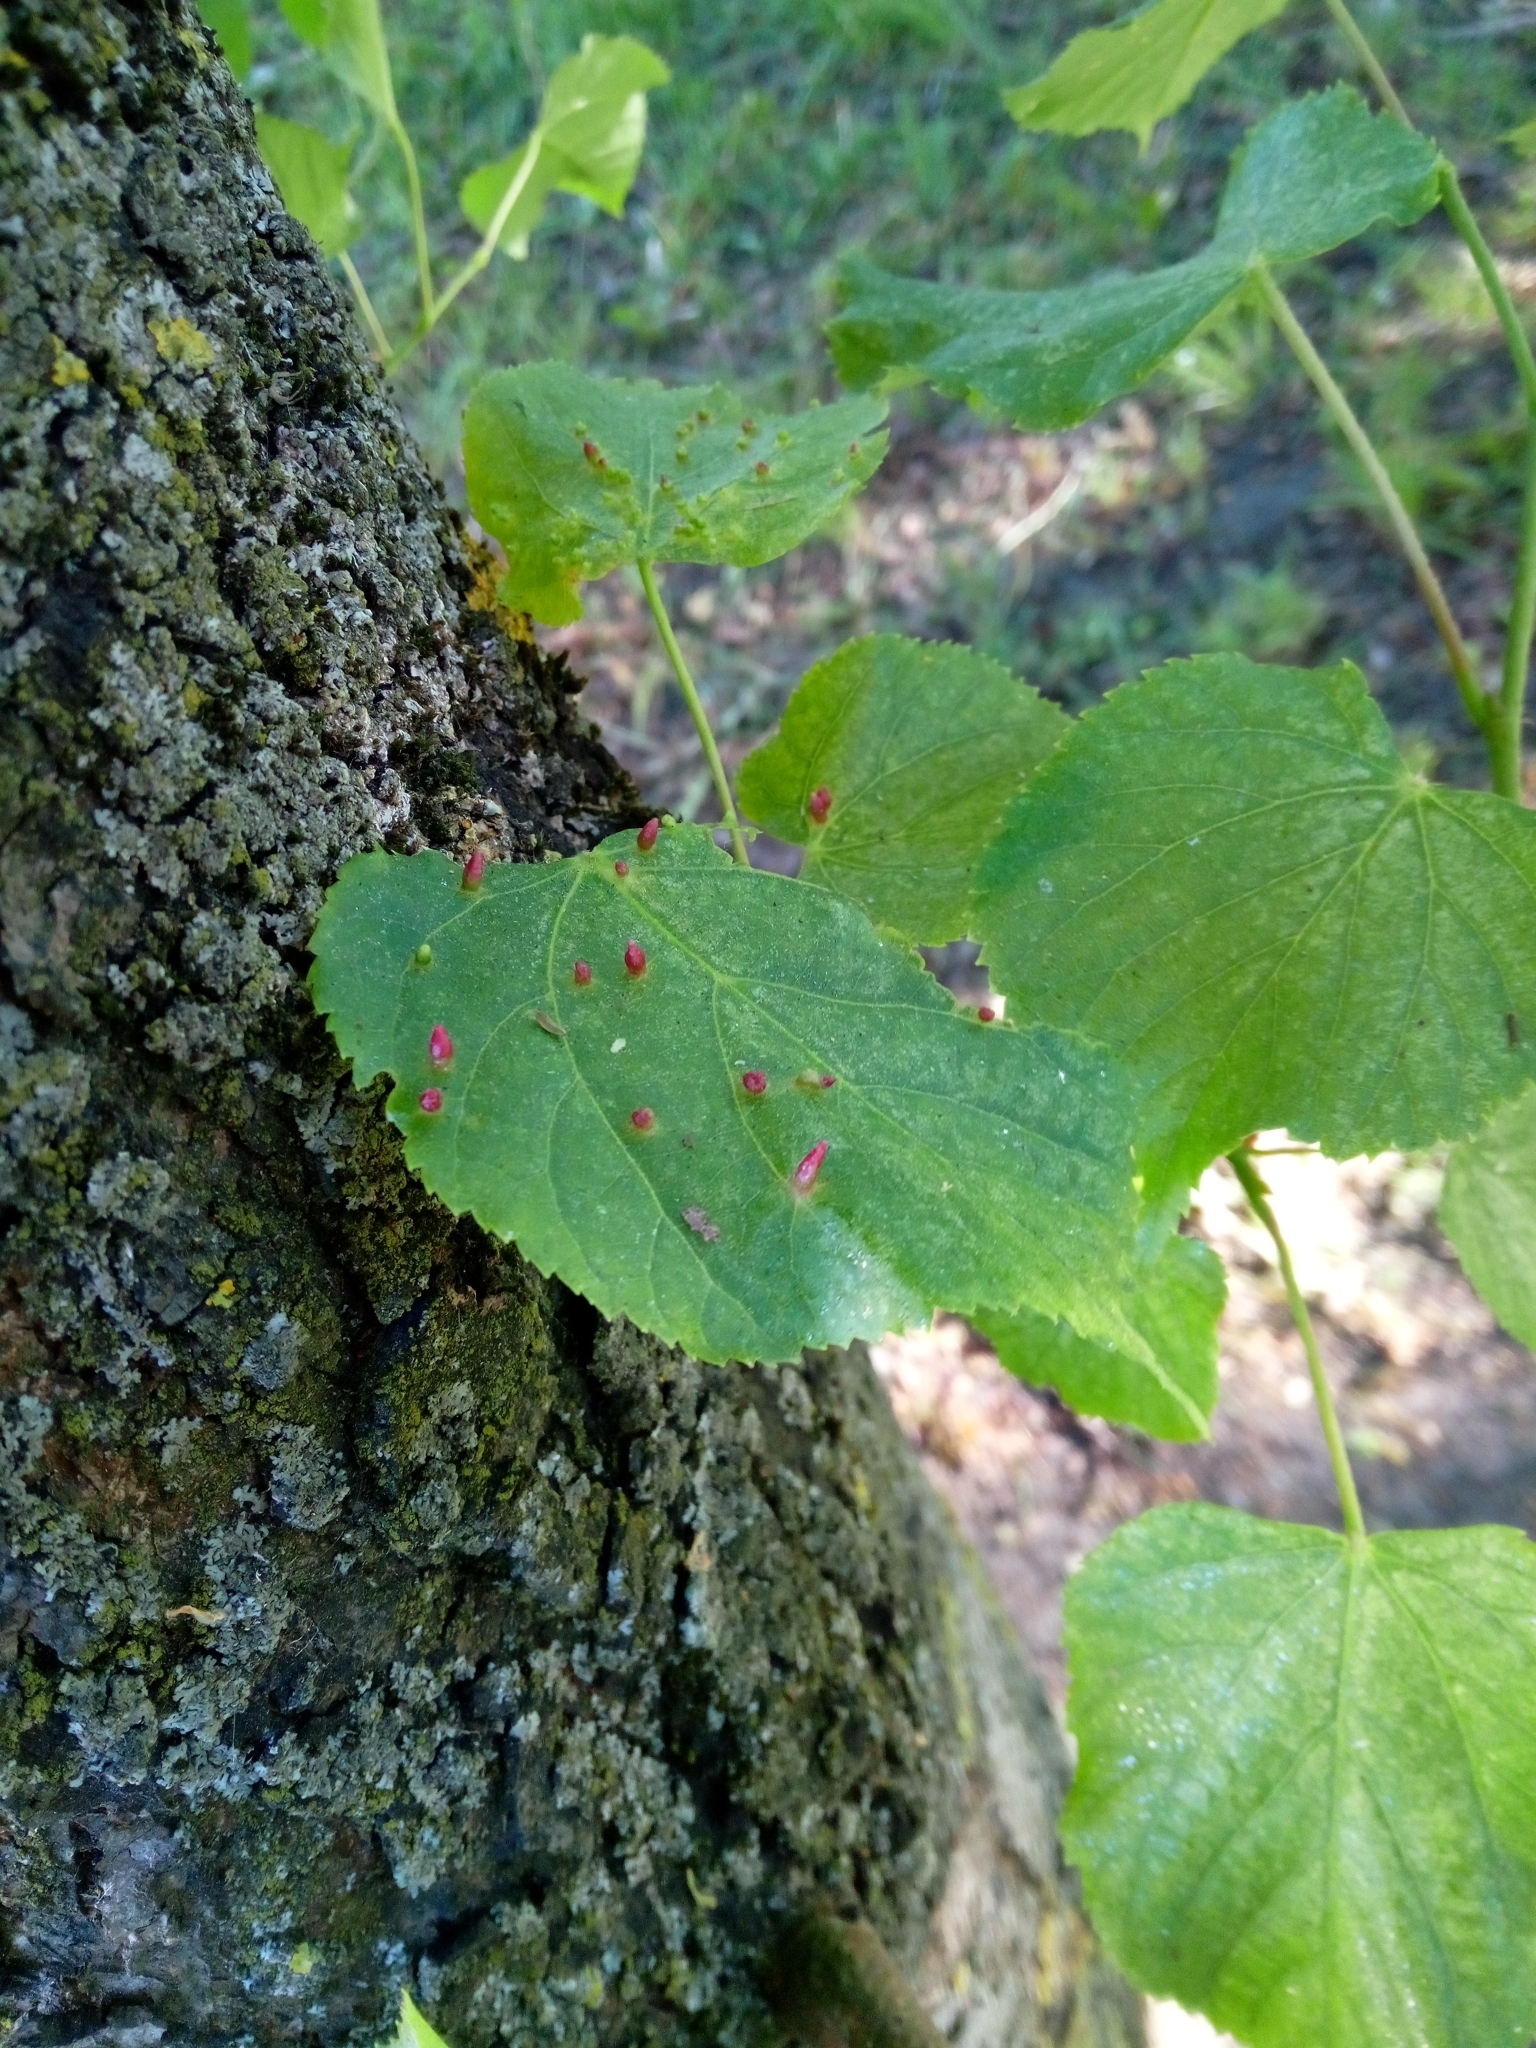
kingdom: Animalia
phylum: Arthropoda
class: Arachnida
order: Trombidiformes
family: Eriophyidae
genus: Eriophyes
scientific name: Eriophyes tiliae
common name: Red nail gall mite
